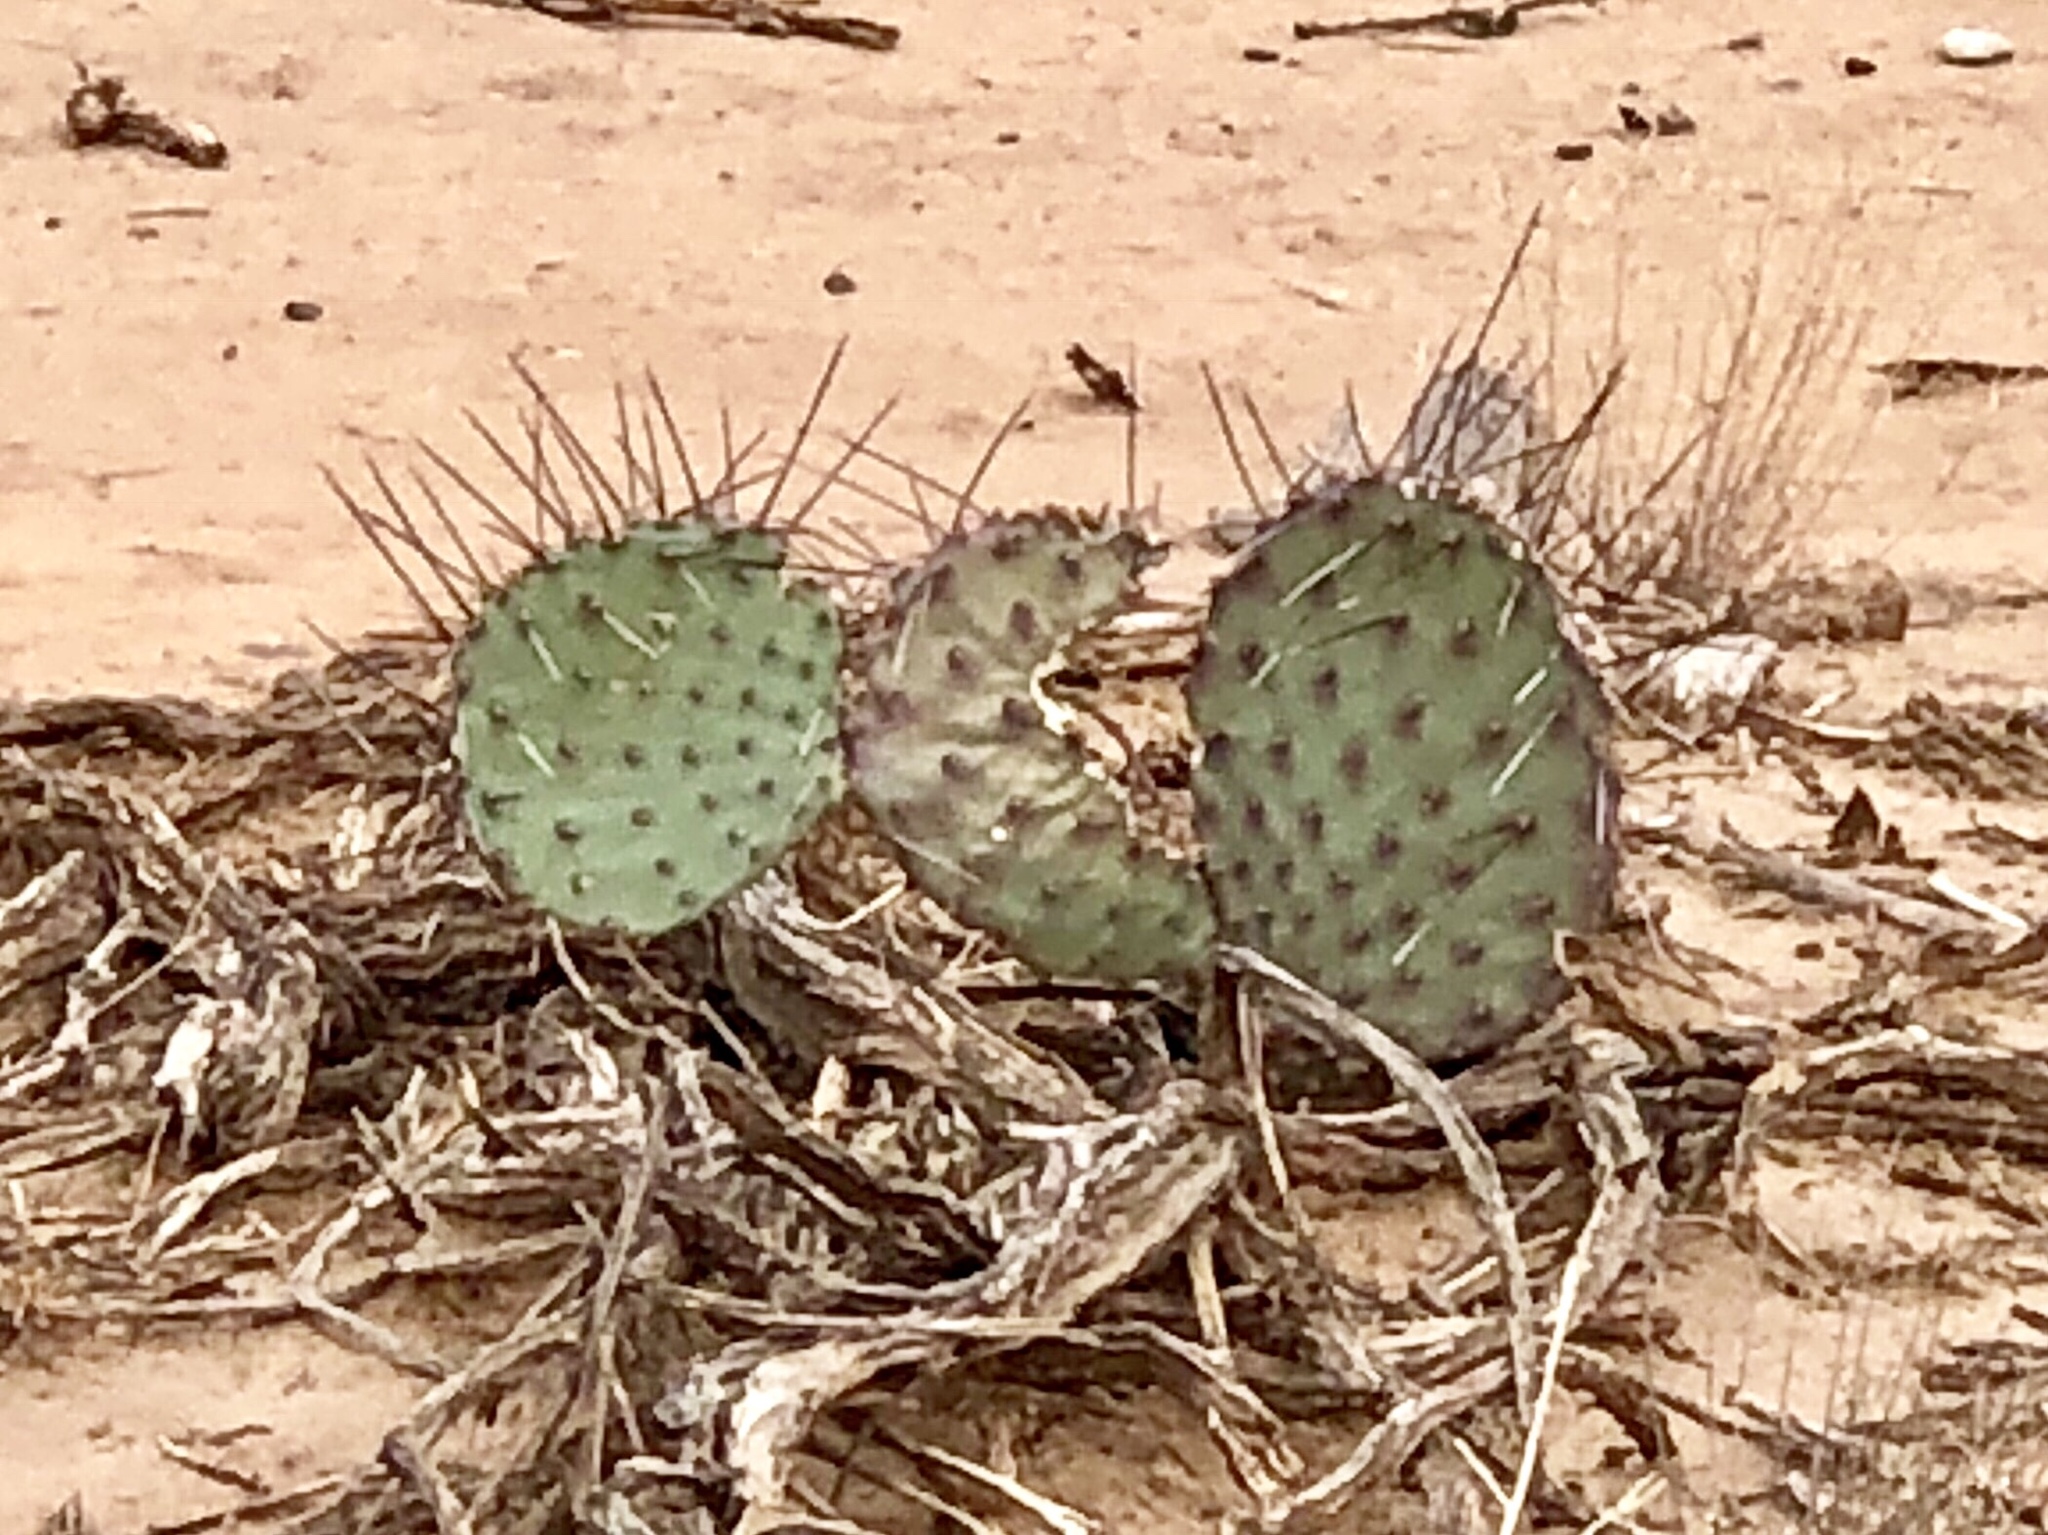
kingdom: Plantae
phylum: Tracheophyta
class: Magnoliopsida
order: Caryophyllales
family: Cactaceae
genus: Opuntia
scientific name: Opuntia macrocentra
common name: Purple prickly-pear
